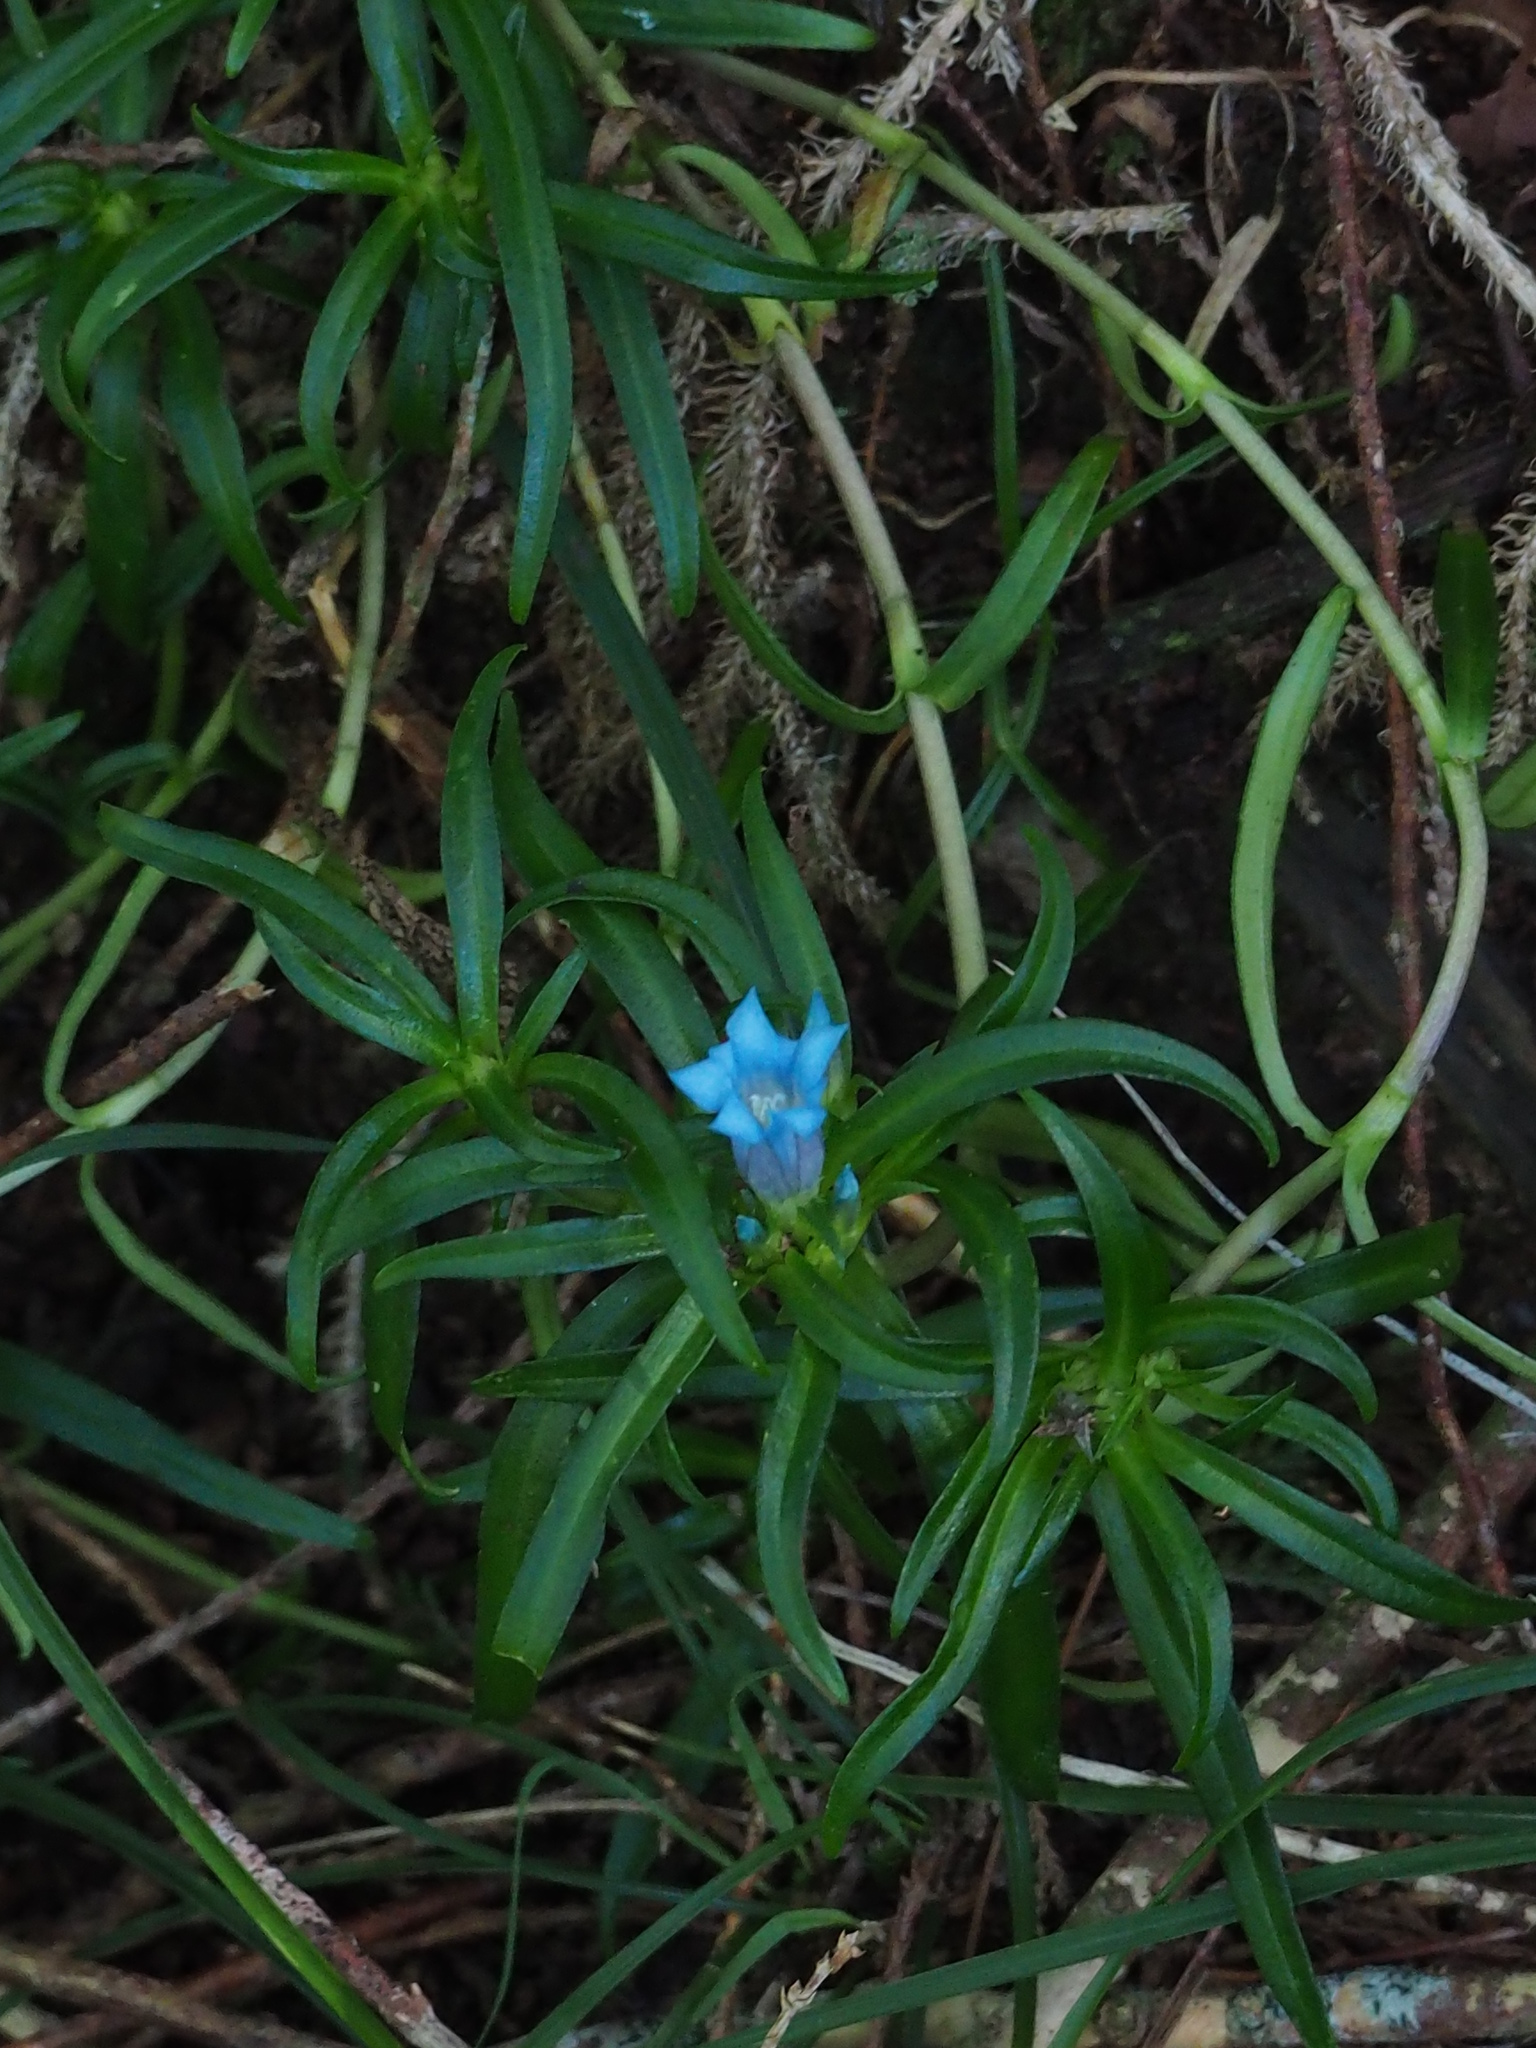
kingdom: Plantae
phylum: Tracheophyta
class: Magnoliopsida
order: Gentianales
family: Gentianaceae
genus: Gentiana
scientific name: Gentiana davidii
